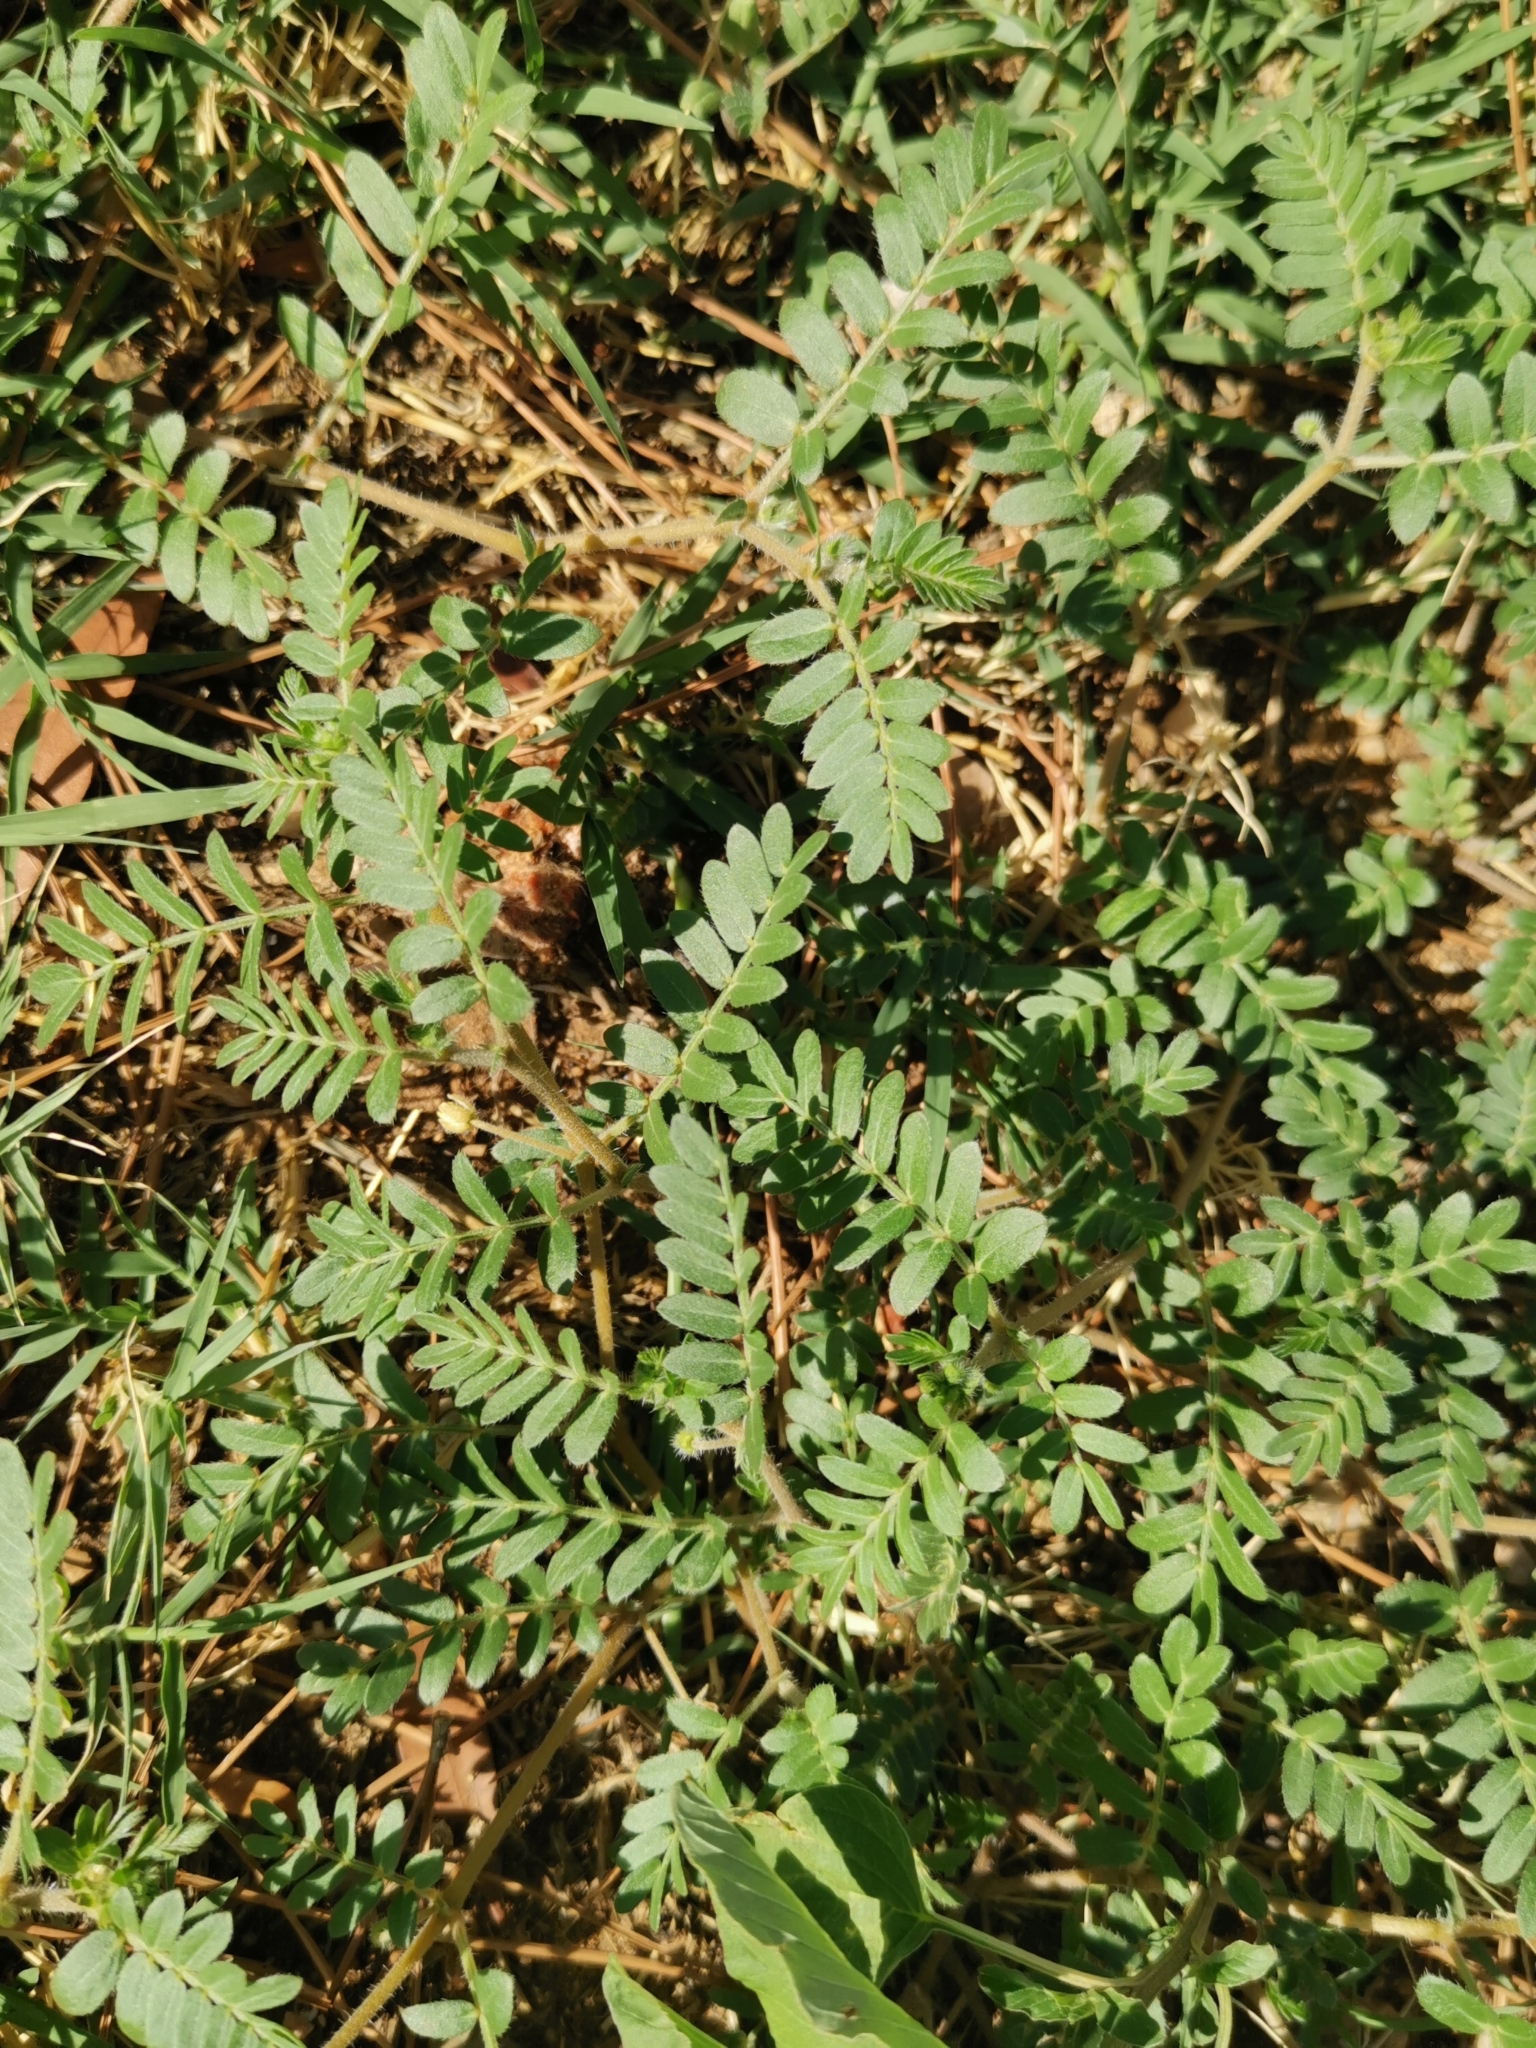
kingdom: Plantae
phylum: Tracheophyta
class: Magnoliopsida
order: Zygophyllales
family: Zygophyllaceae
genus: Tribulus
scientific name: Tribulus terrestris
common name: Puncturevine
